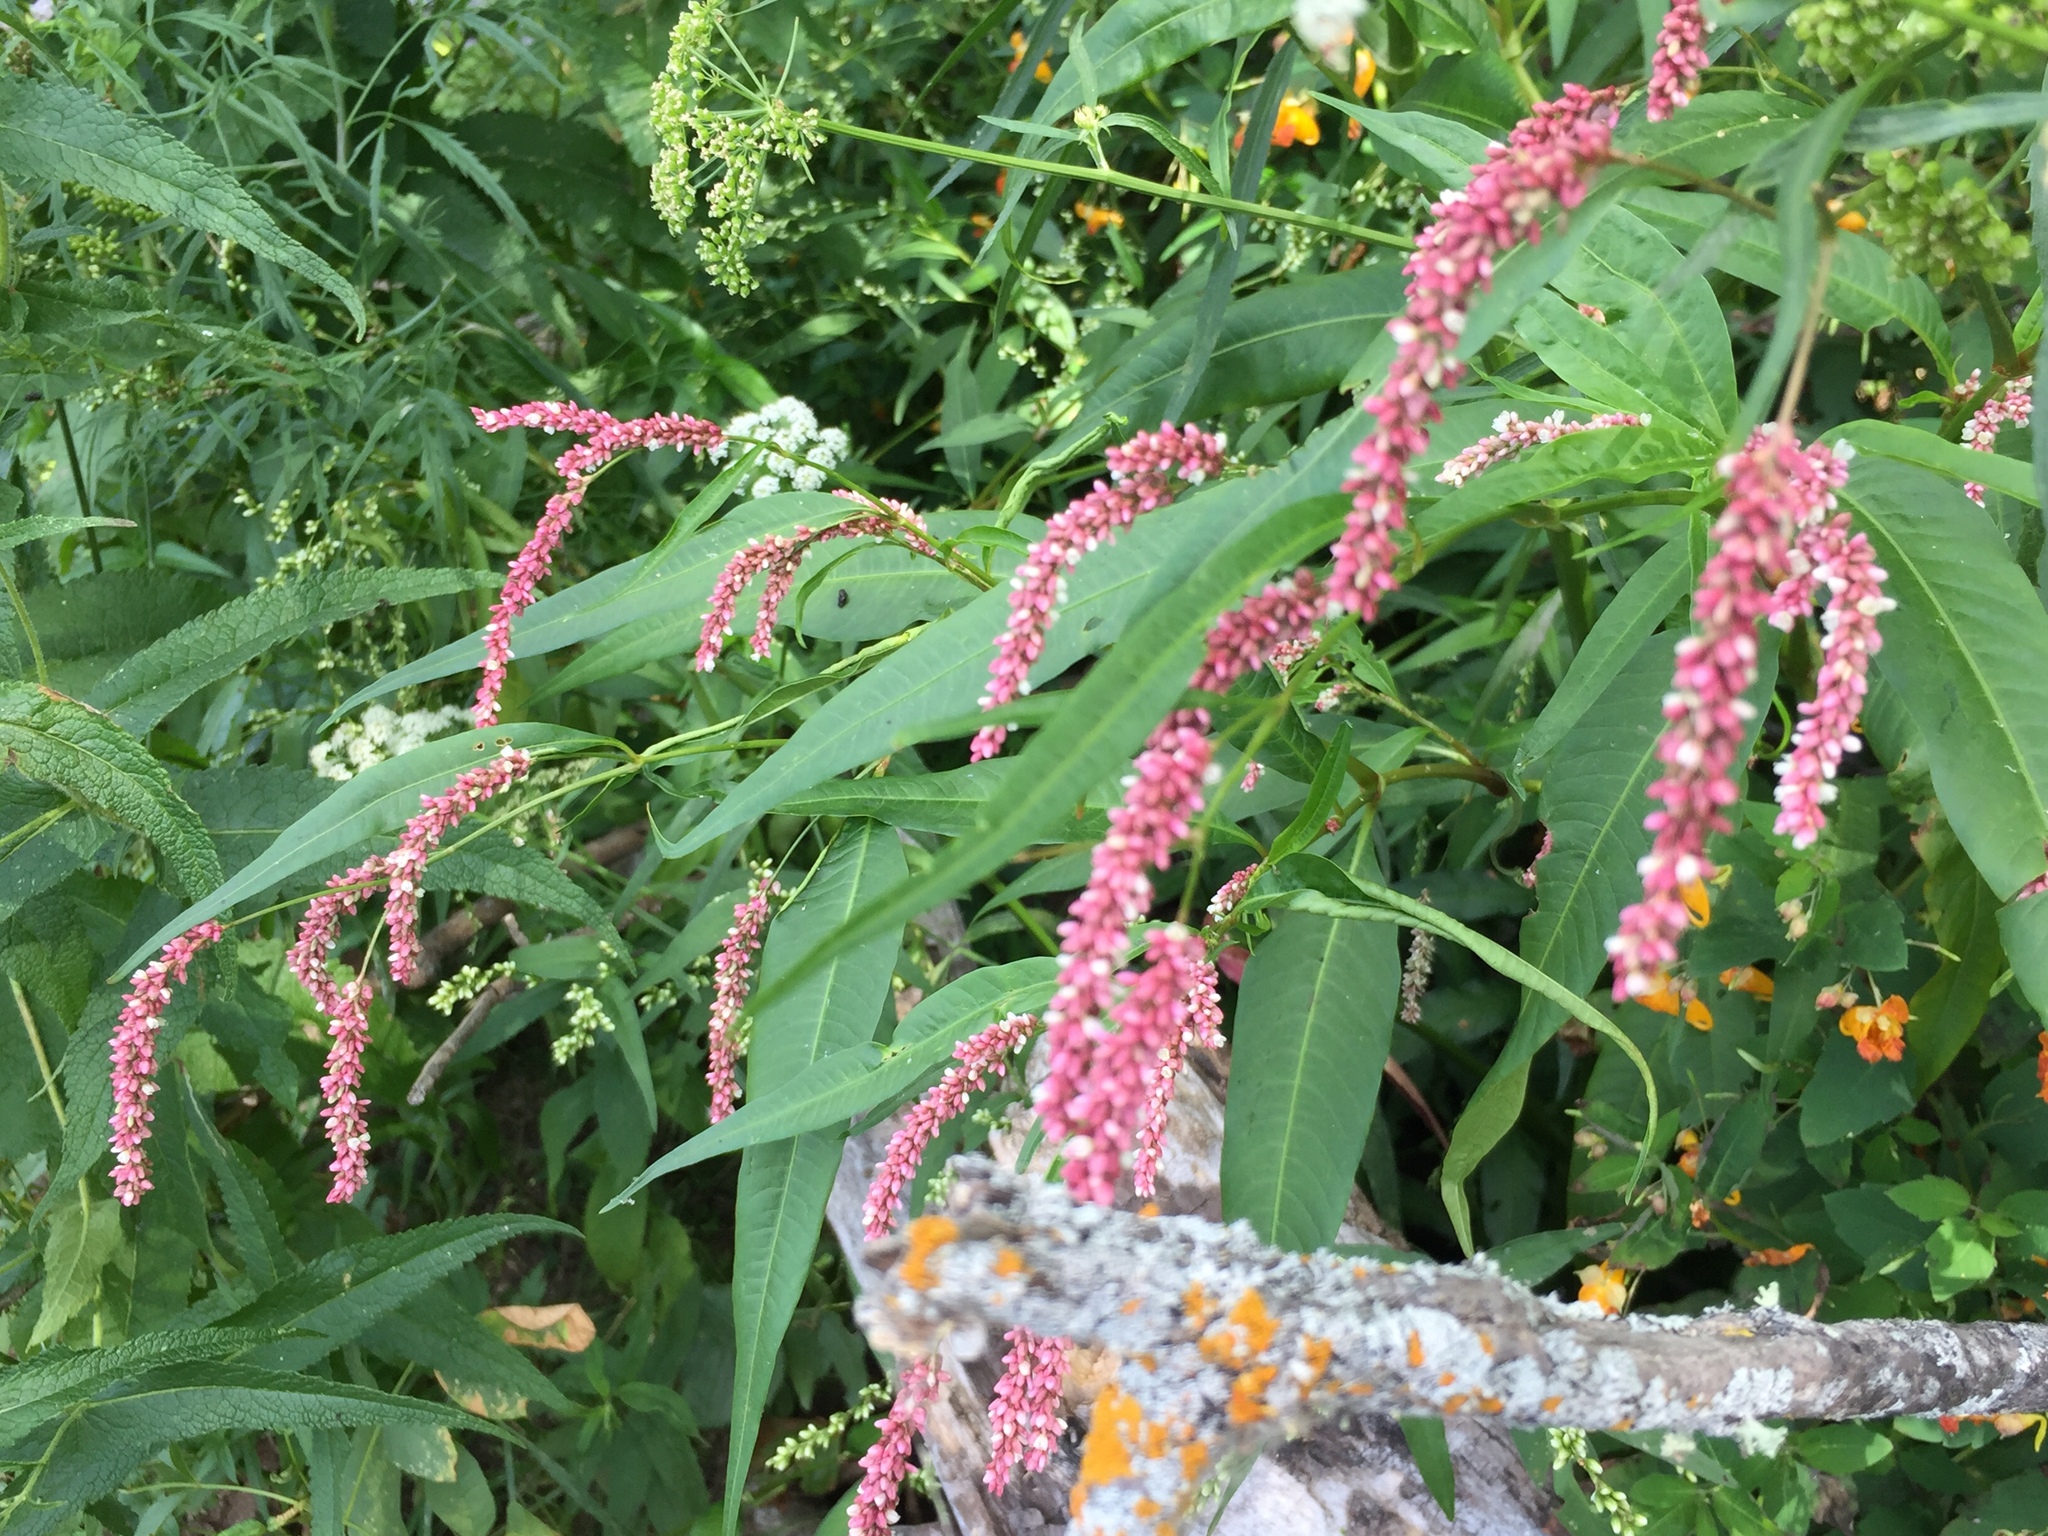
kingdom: Plantae
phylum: Tracheophyta
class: Magnoliopsida
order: Caryophyllales
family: Polygonaceae
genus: Persicaria
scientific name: Persicaria lapathifolia
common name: Curlytop knotweed
